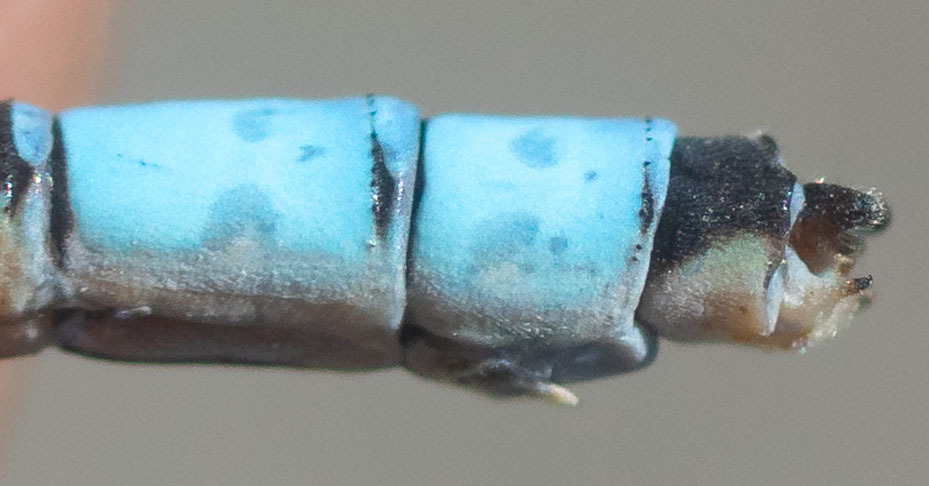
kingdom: Animalia
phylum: Arthropoda
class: Insecta
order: Odonata
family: Coenagrionidae
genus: Enallagma
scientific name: Enallagma praevarum
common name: Arroyo bluet
